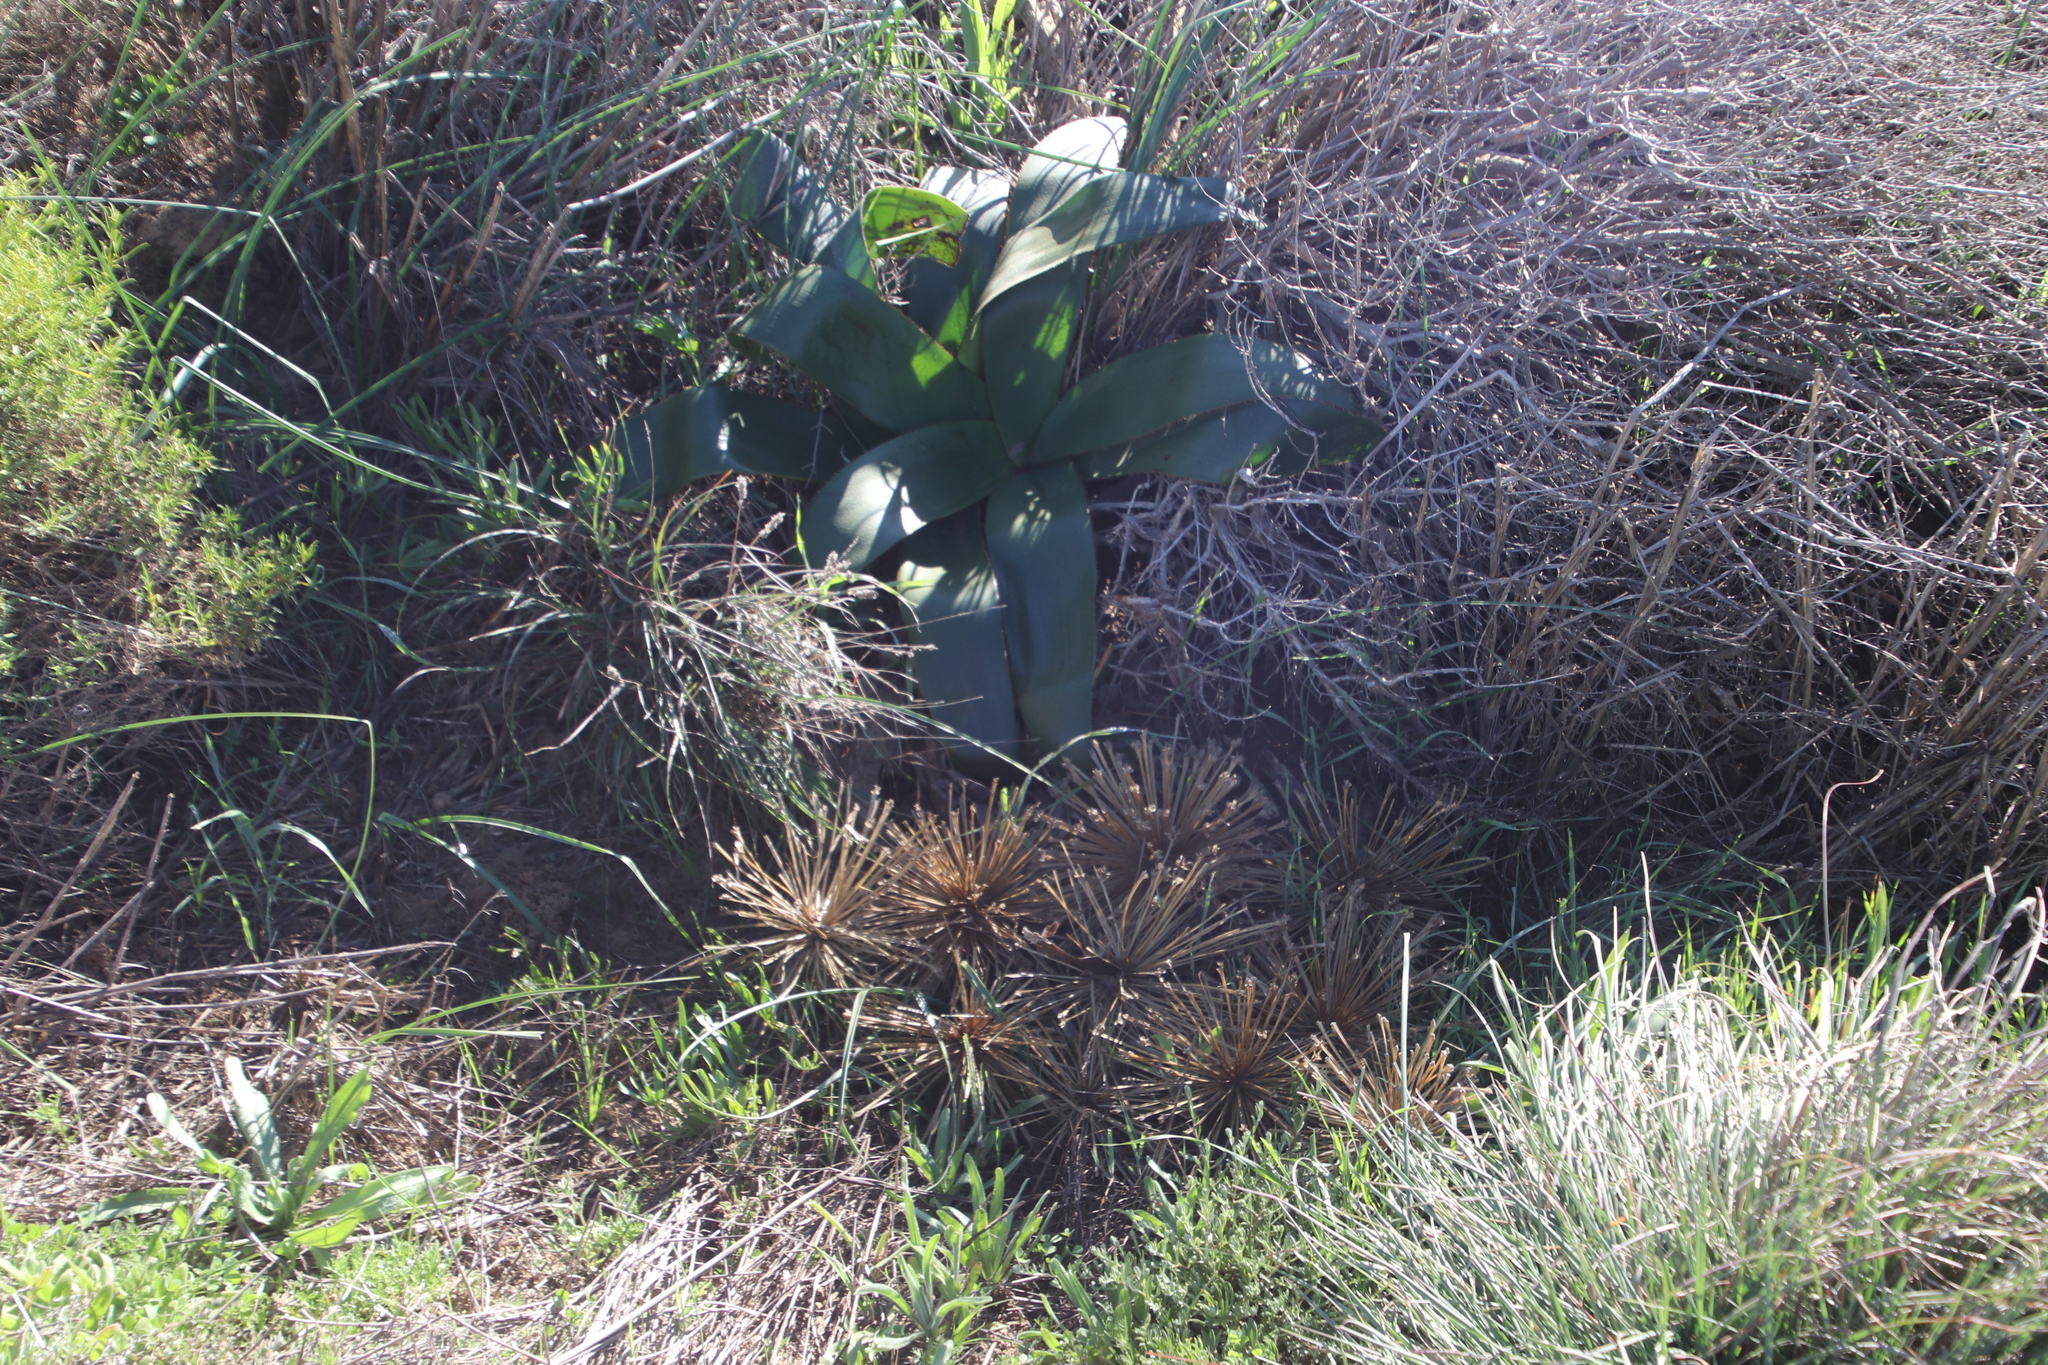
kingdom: Plantae
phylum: Tracheophyta
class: Liliopsida
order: Asparagales
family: Amaryllidaceae
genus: Crossyne
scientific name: Crossyne flava
